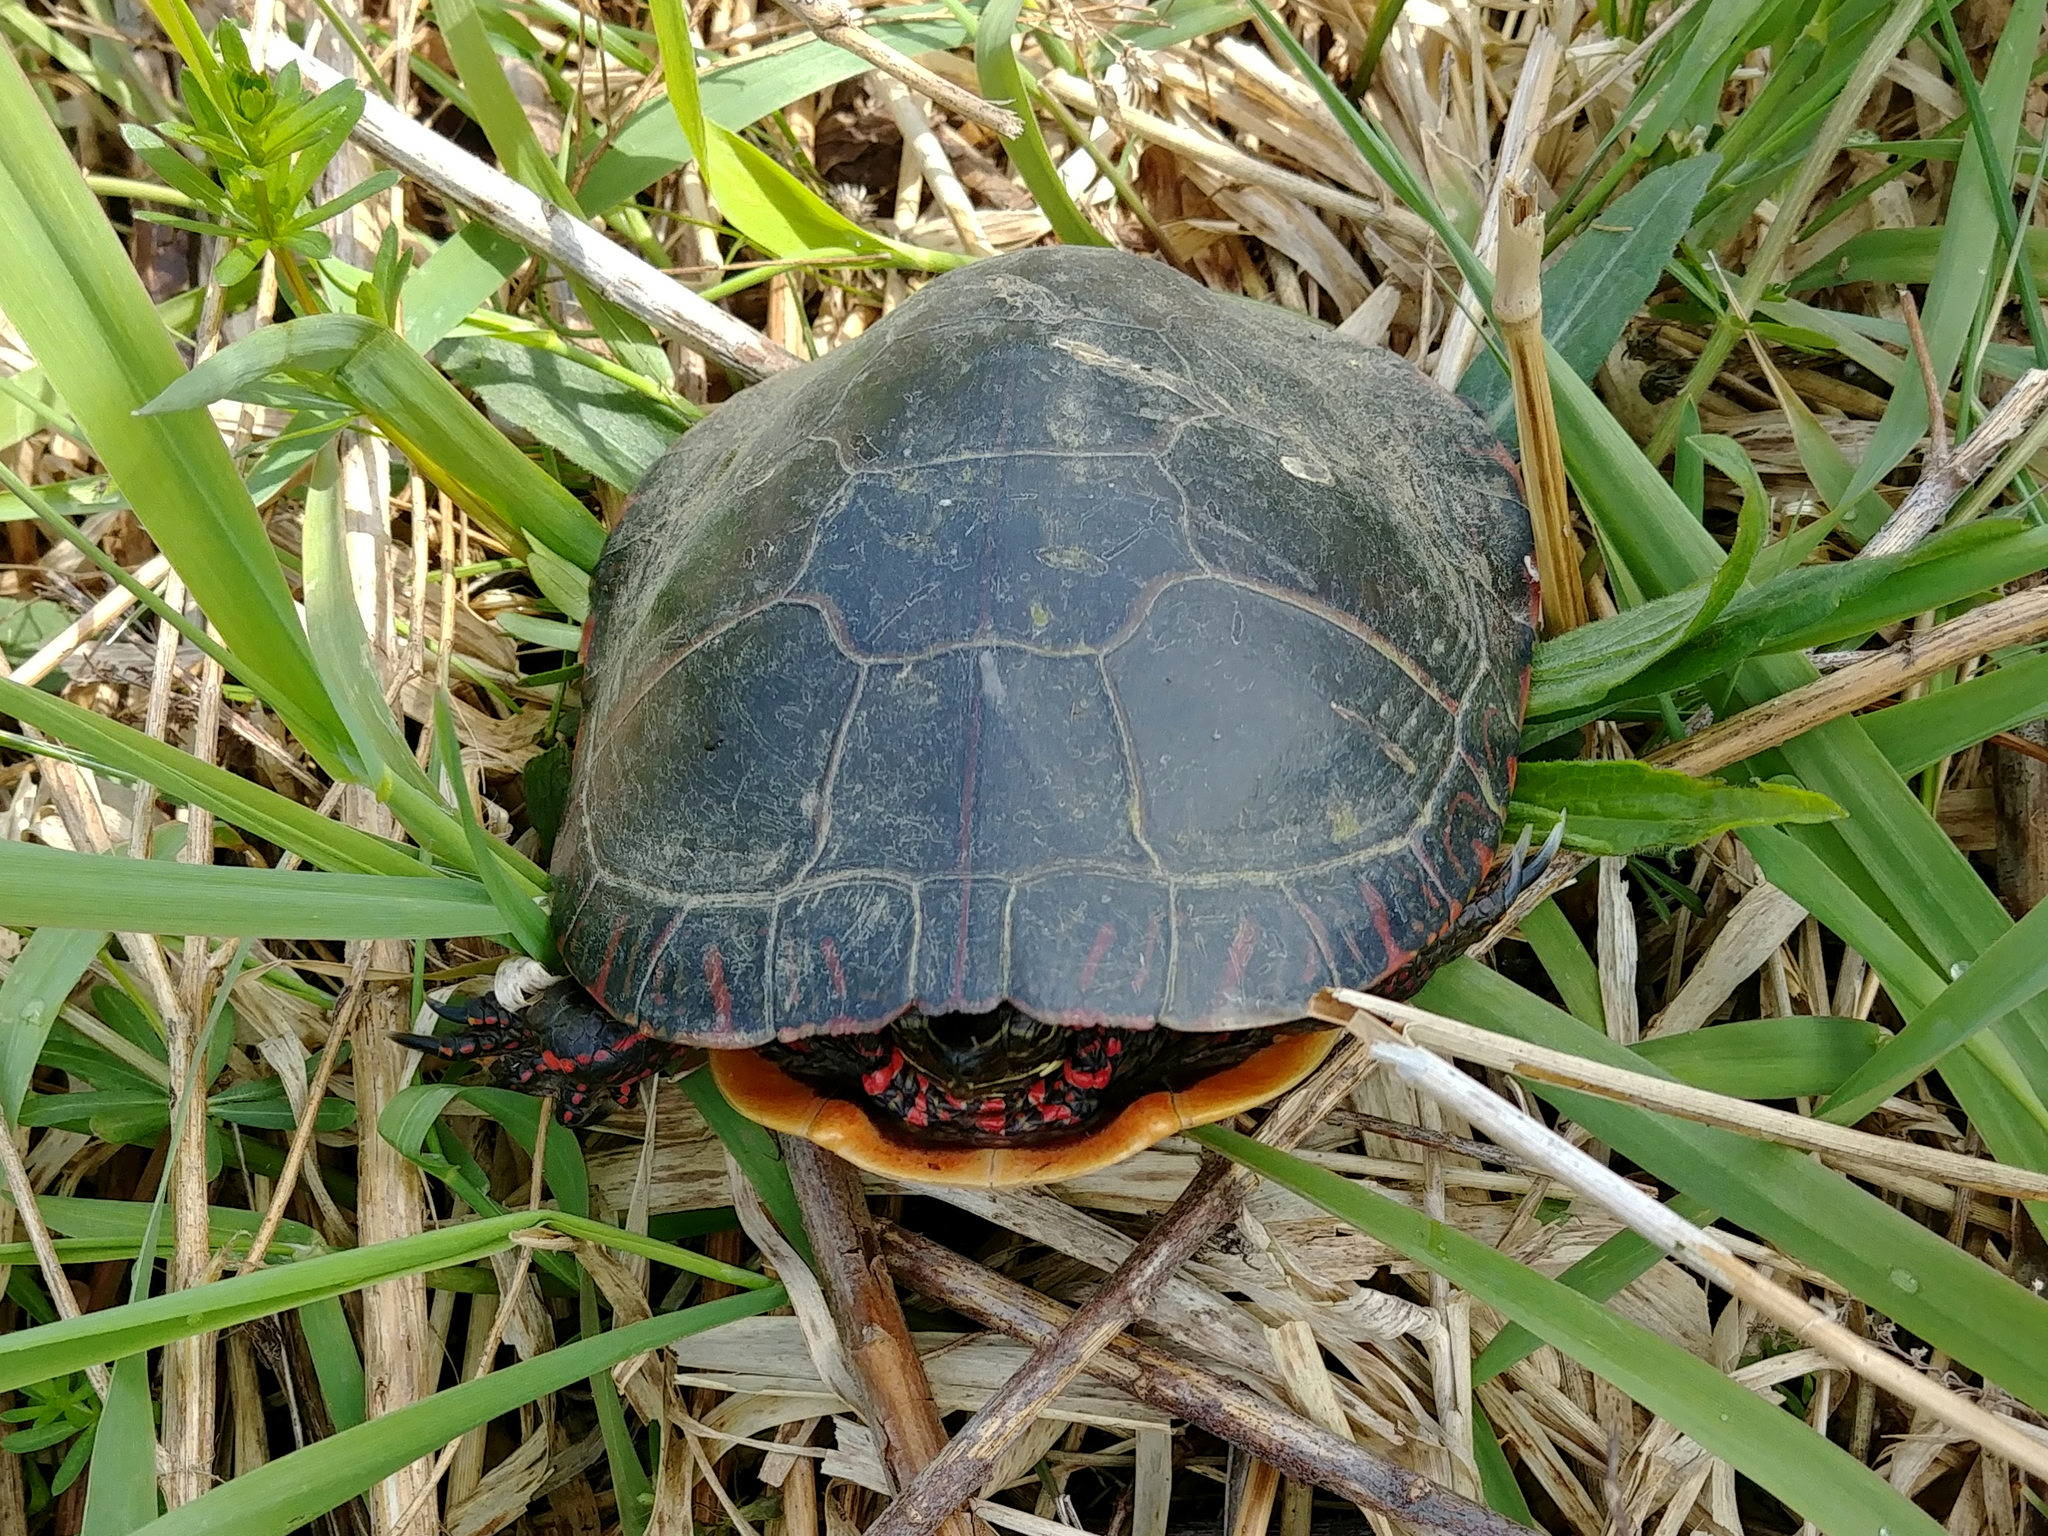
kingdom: Animalia
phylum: Chordata
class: Testudines
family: Emydidae
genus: Chrysemys
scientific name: Chrysemys picta
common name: Painted turtle
